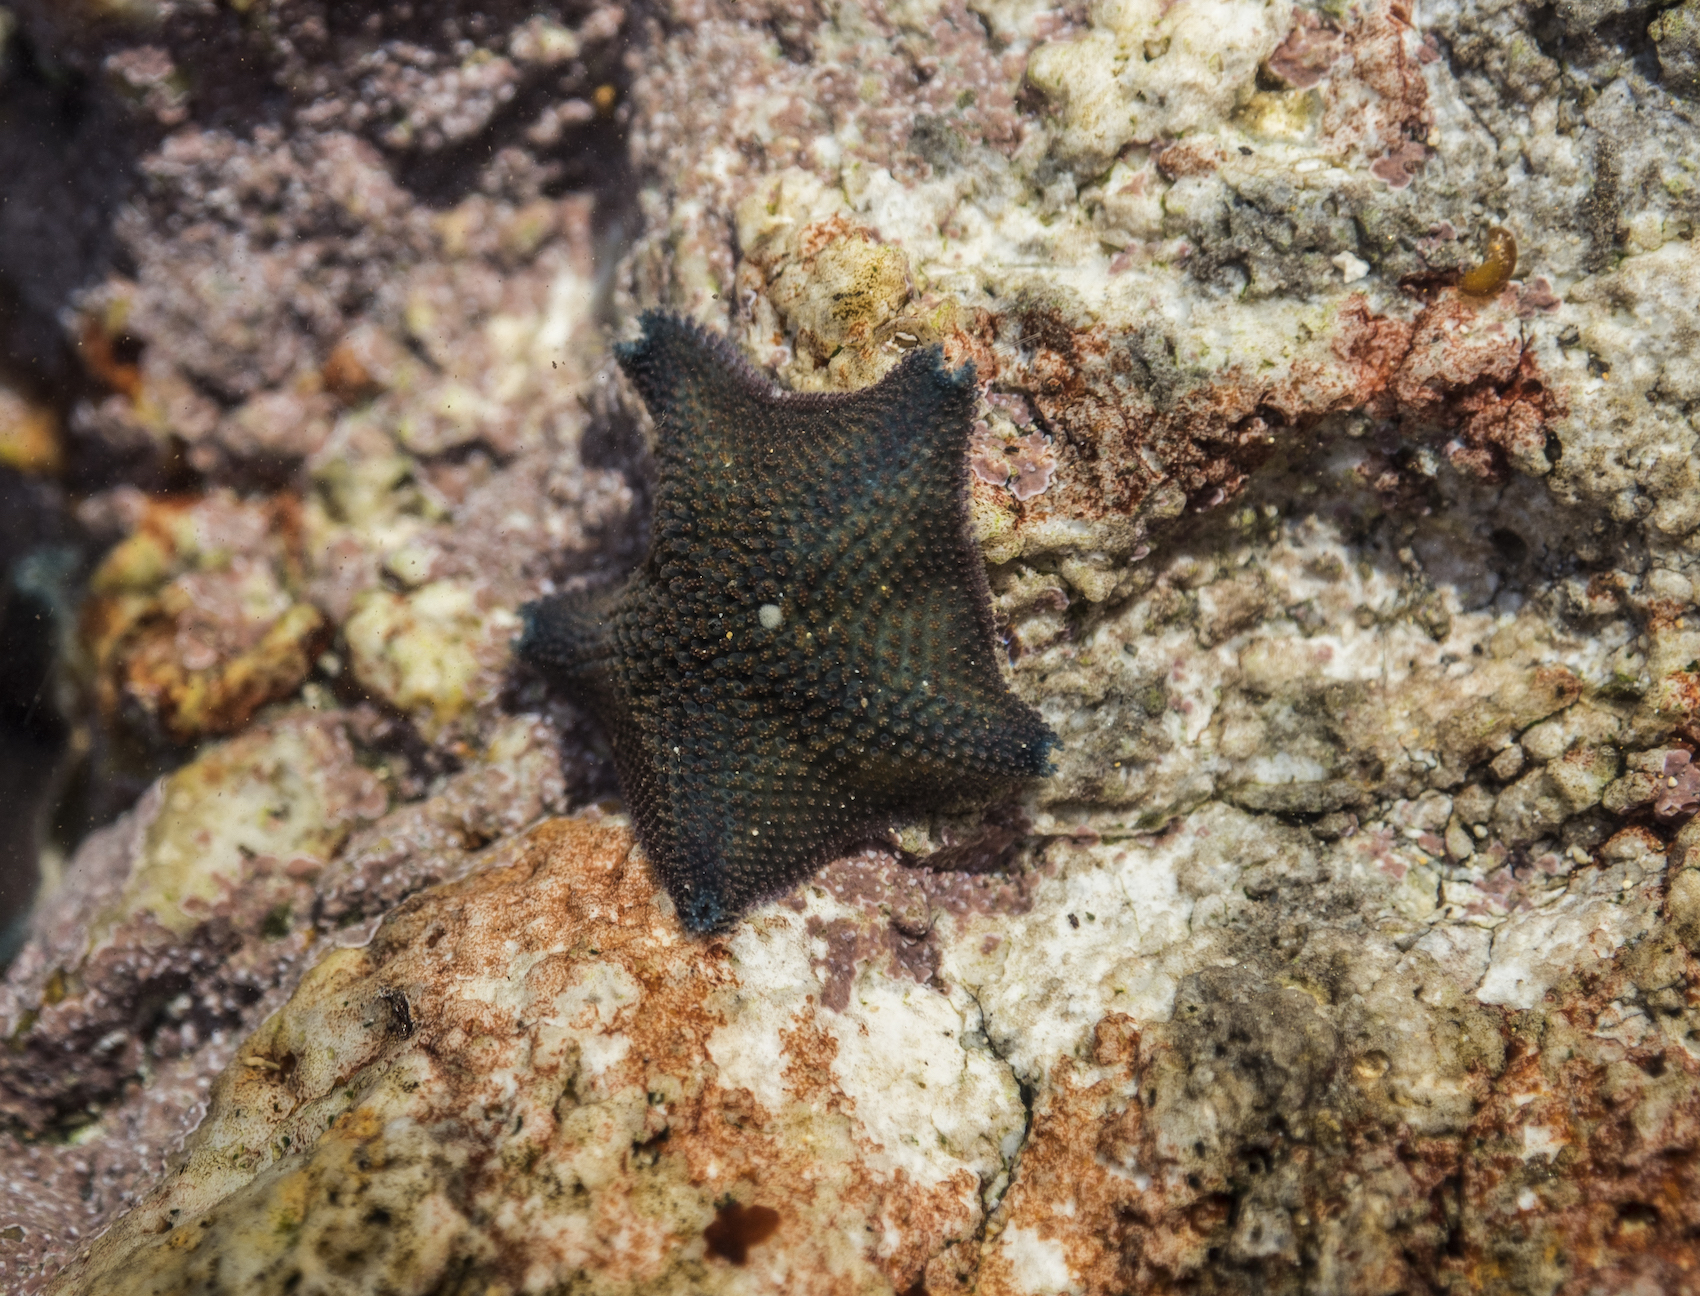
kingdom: Animalia
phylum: Echinodermata
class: Asteroidea
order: Valvatida
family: Asterinidae
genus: Patiriella
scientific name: Patiriella regularis
